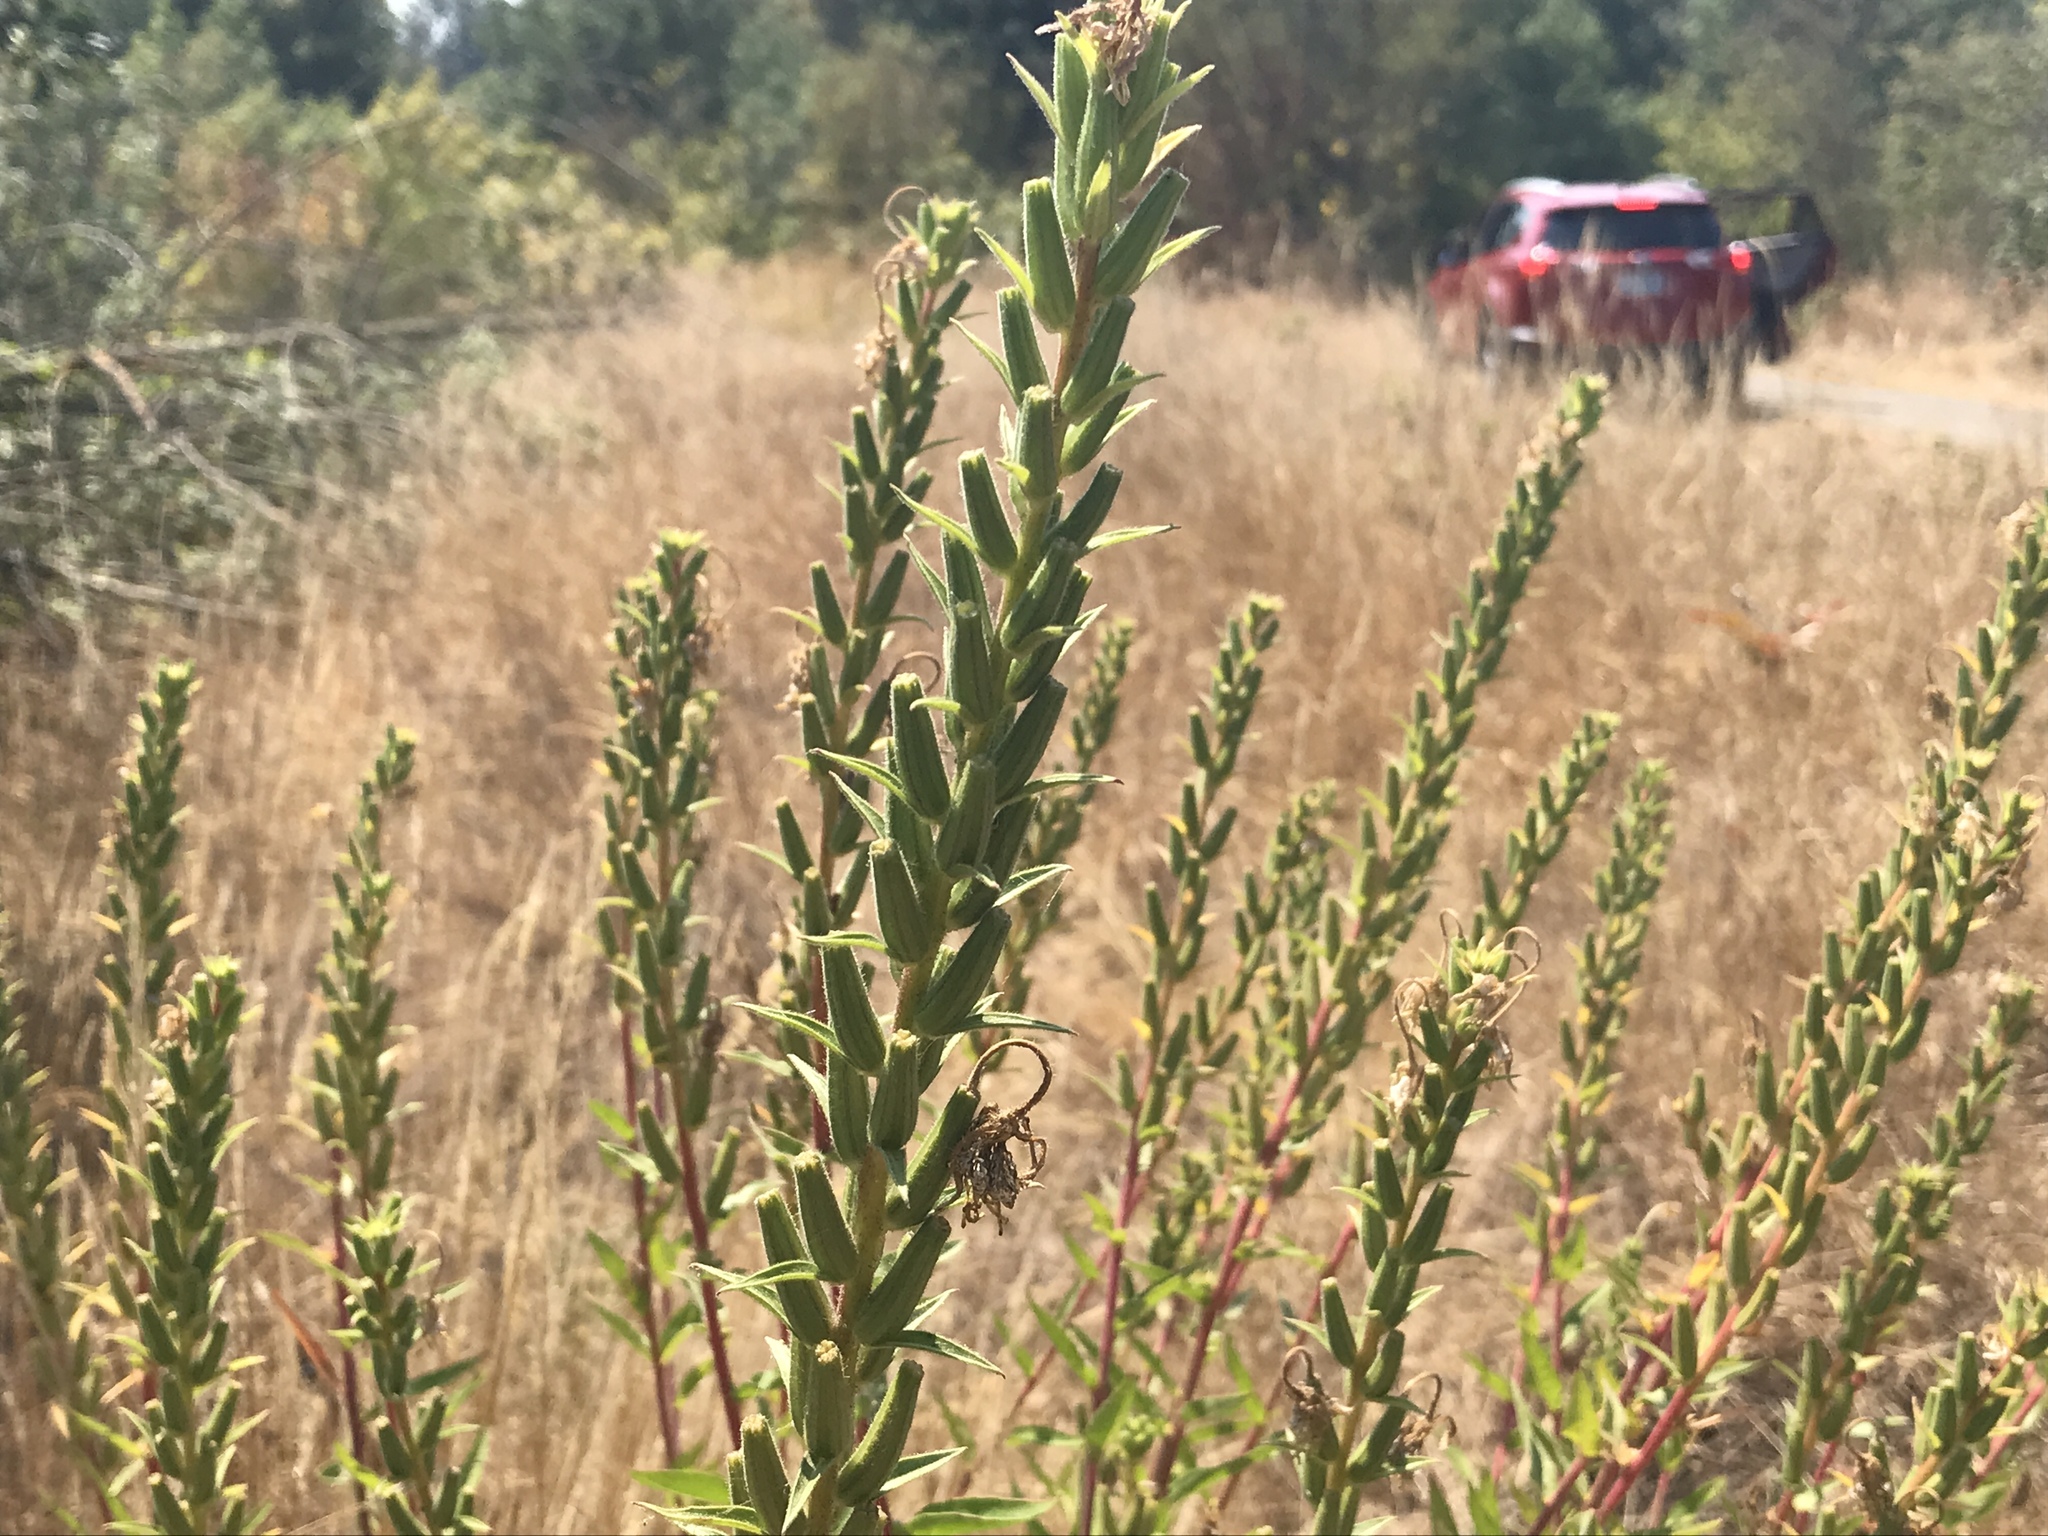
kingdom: Plantae
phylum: Tracheophyta
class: Magnoliopsida
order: Myrtales
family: Onagraceae
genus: Oenothera
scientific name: Oenothera biennis
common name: Common evening-primrose
